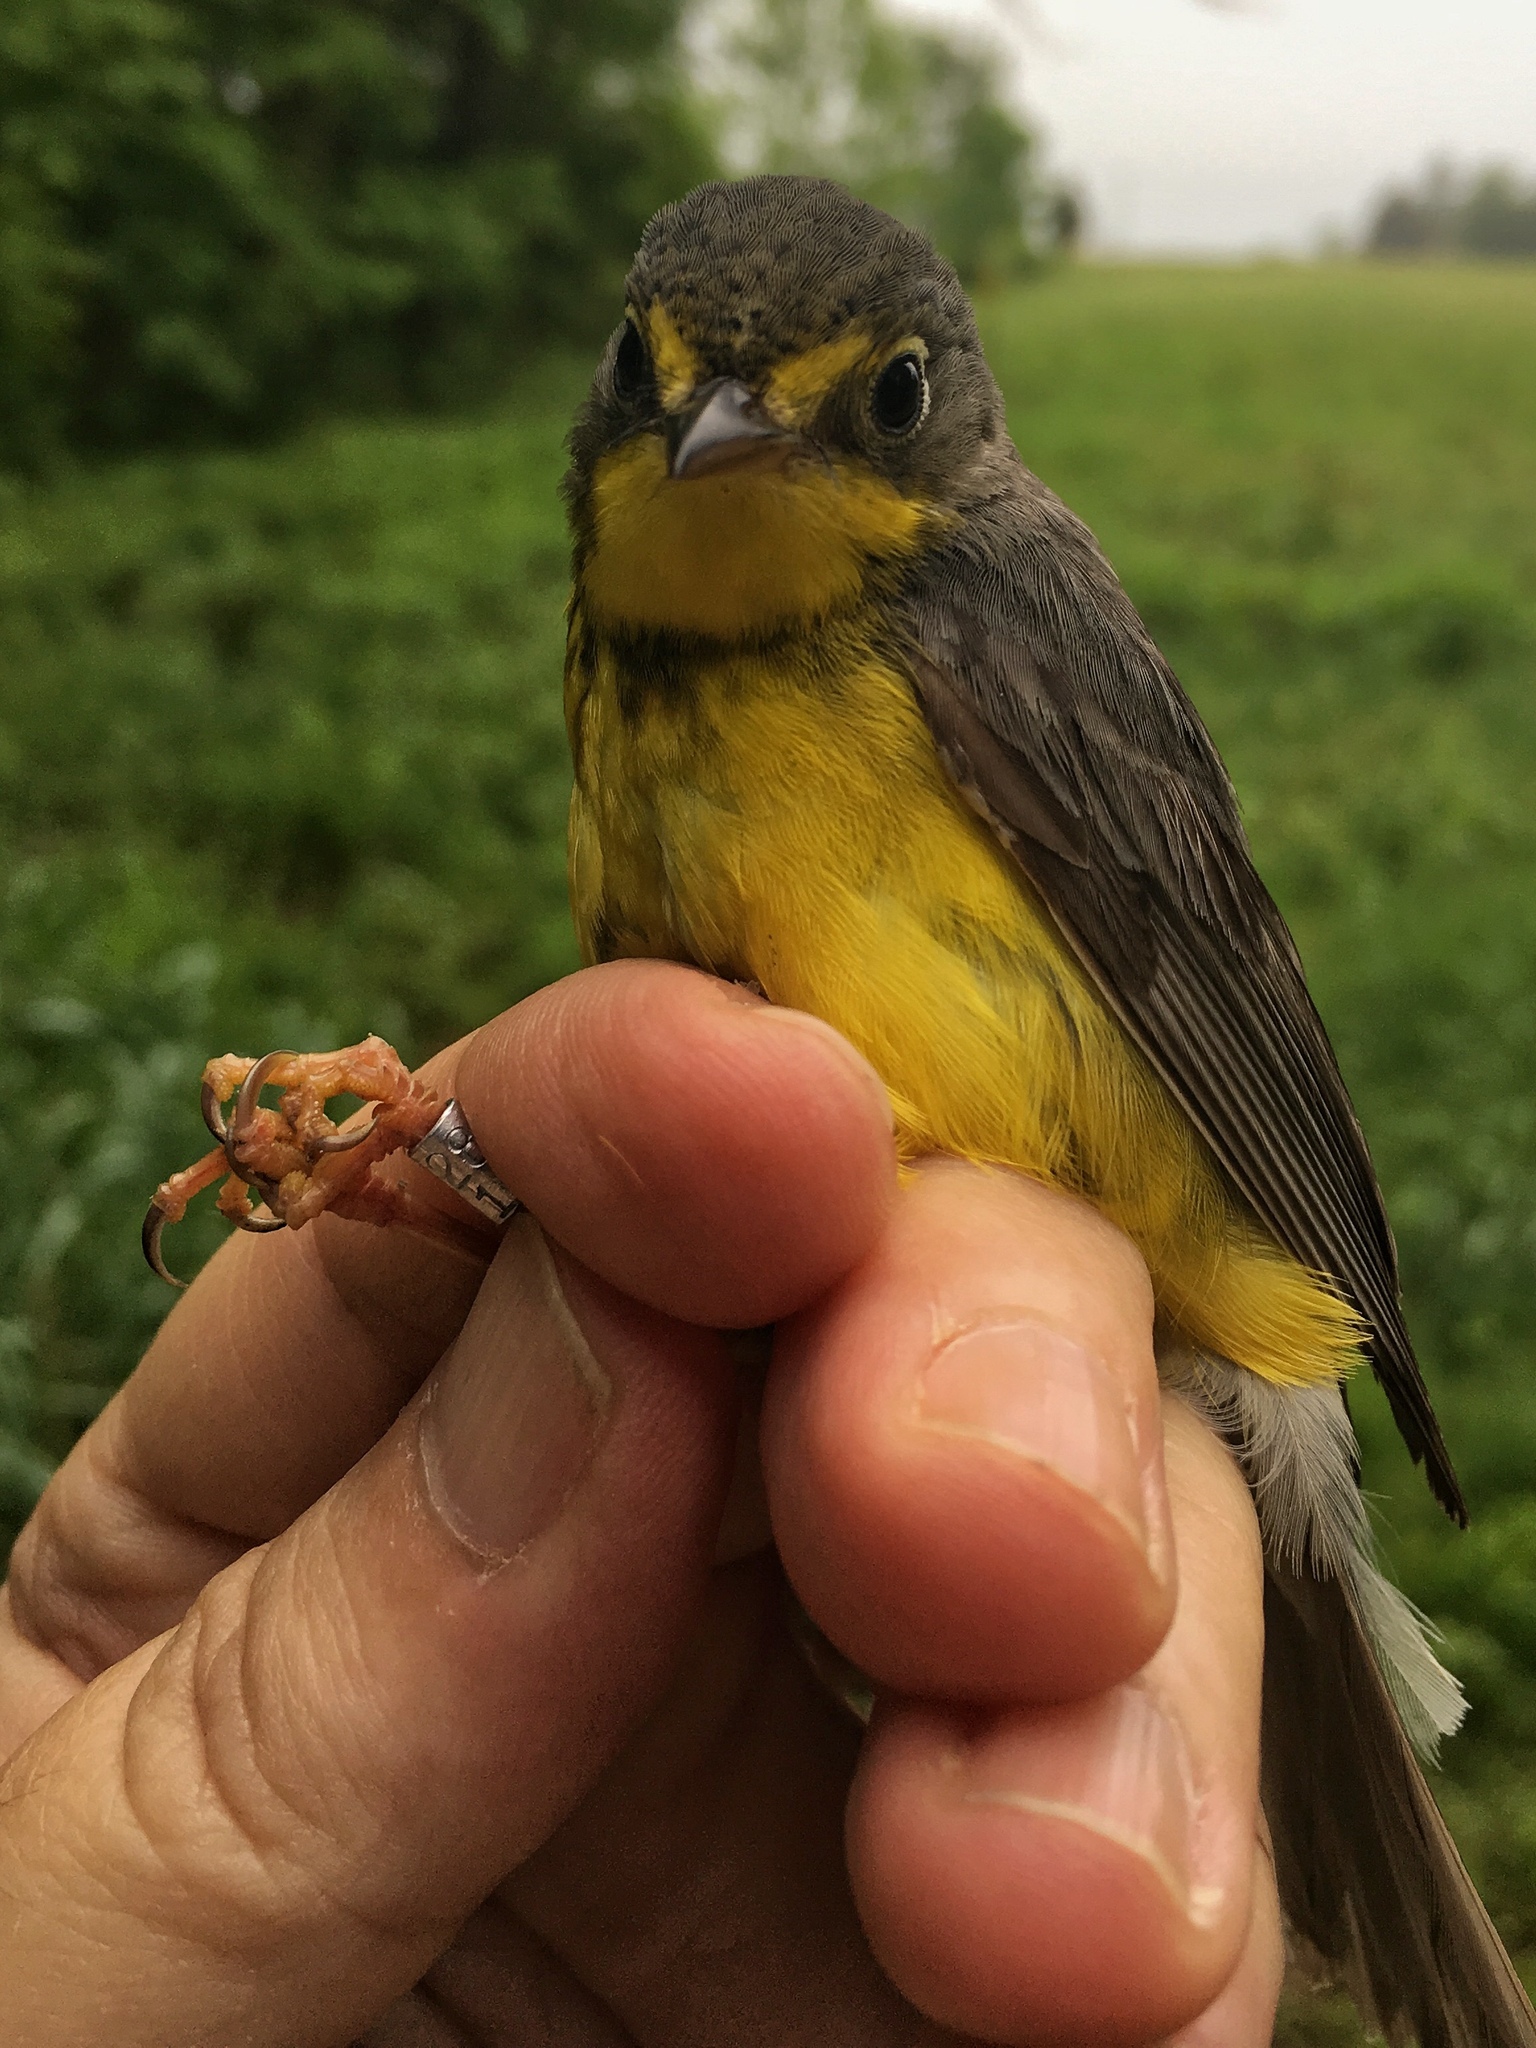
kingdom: Animalia
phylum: Chordata
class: Aves
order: Passeriformes
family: Parulidae
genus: Cardellina
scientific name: Cardellina canadensis
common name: Canada warbler
